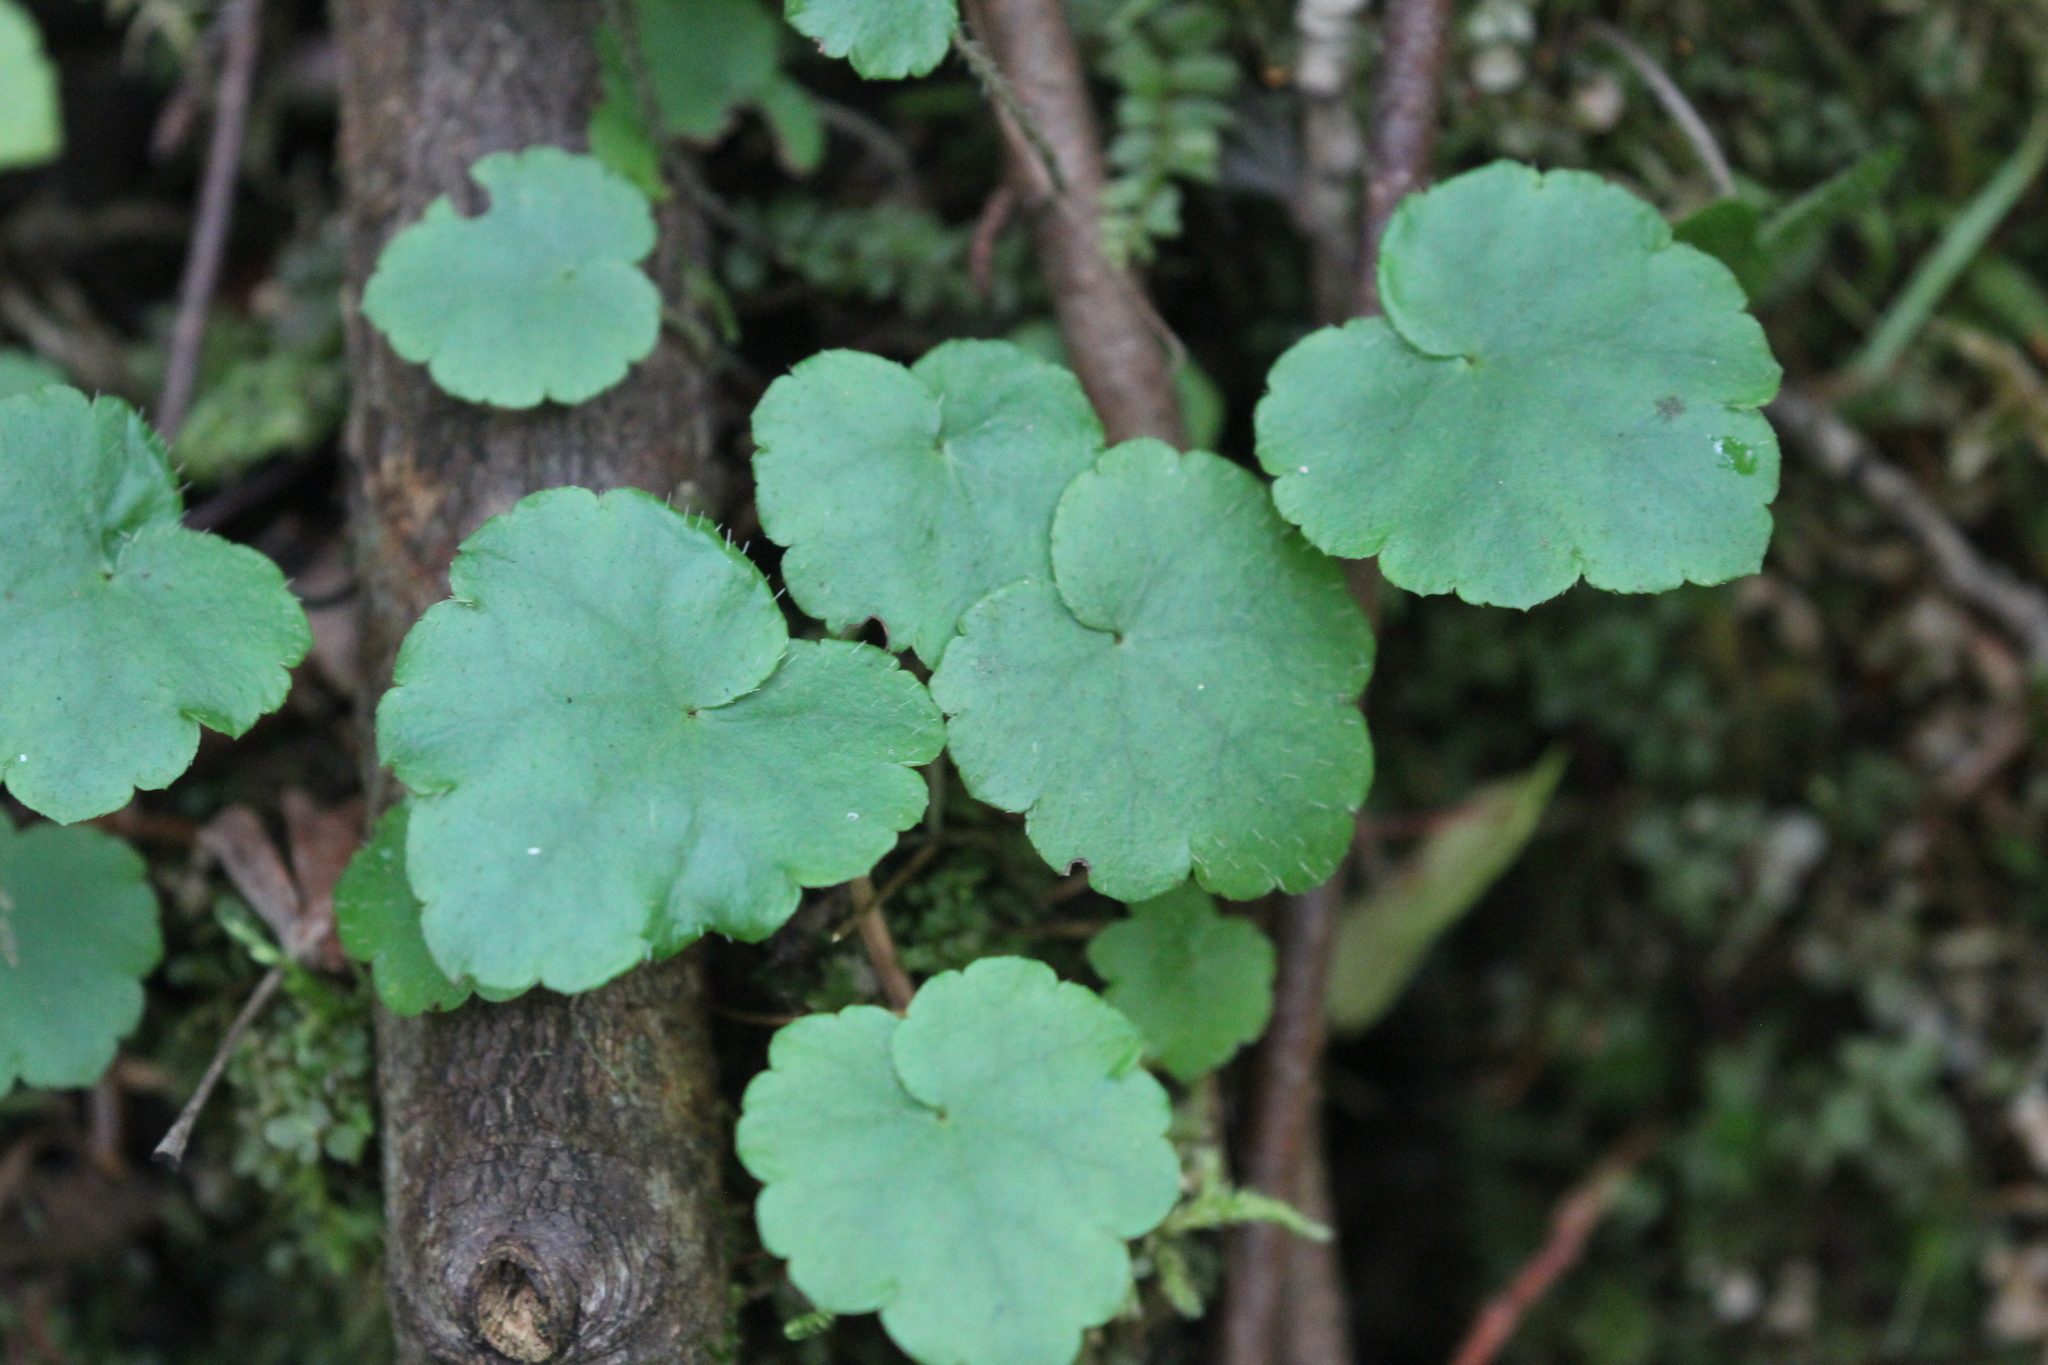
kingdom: Plantae
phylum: Tracheophyta
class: Magnoliopsida
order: Saxifragales
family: Saxifragaceae
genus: Mitella
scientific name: Mitella nuda
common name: Bare-stemmed bishop's-cap
